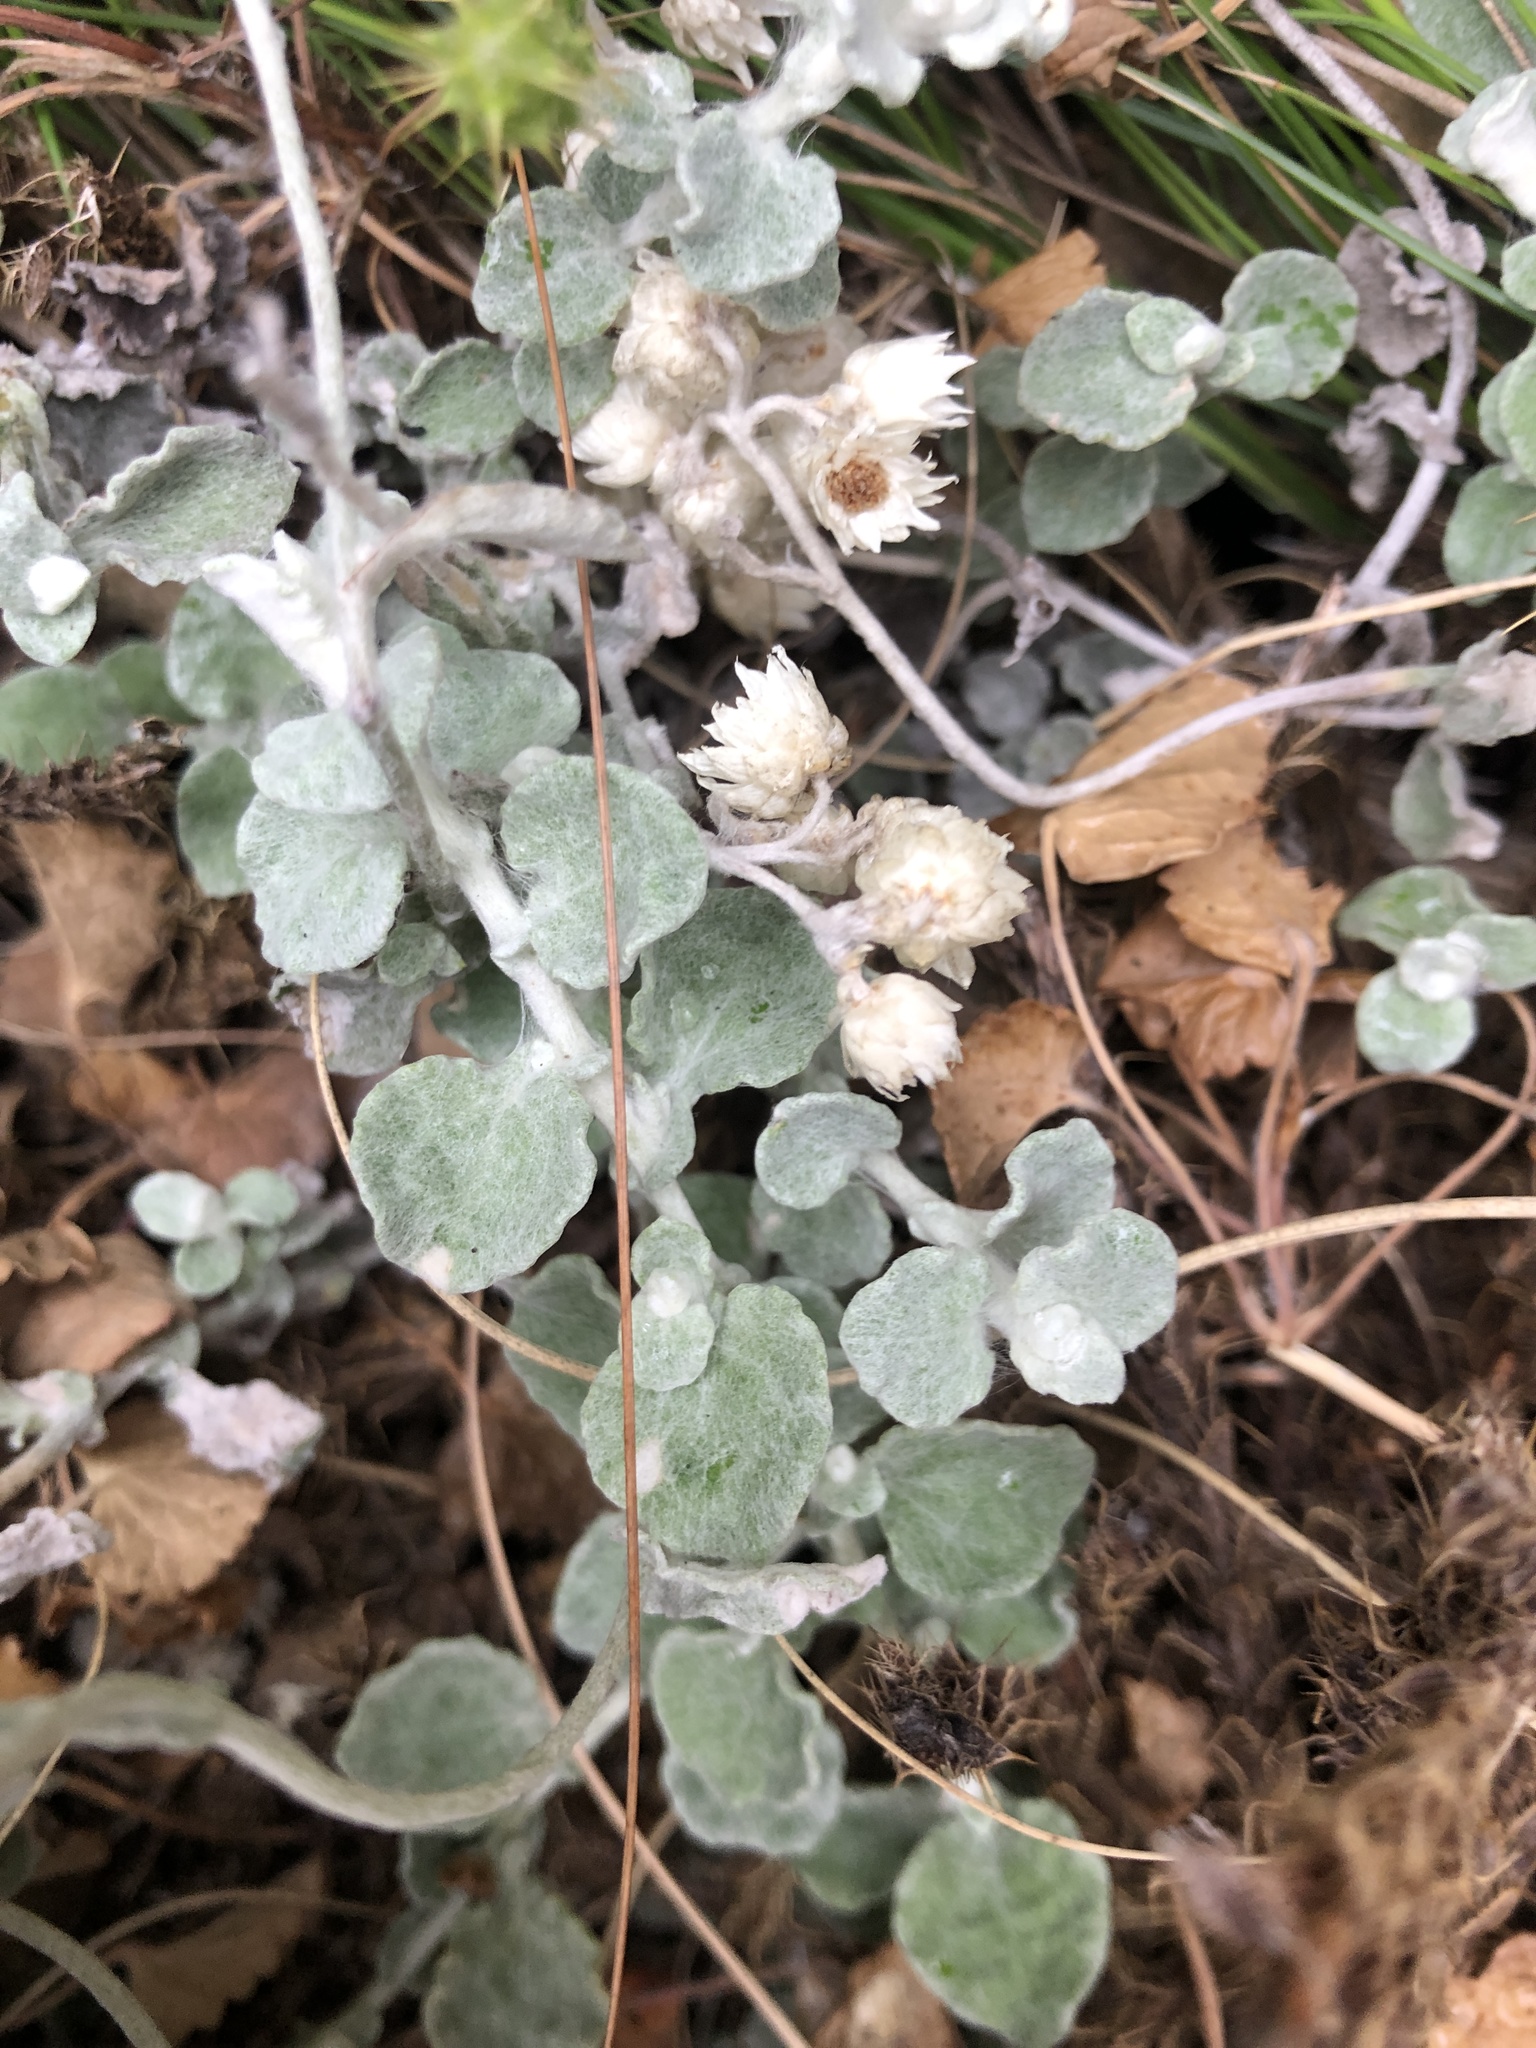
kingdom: Plantae
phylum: Tracheophyta
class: Magnoliopsida
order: Asterales
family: Asteraceae
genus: Helichrysum
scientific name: Helichrysum pandurifolium
